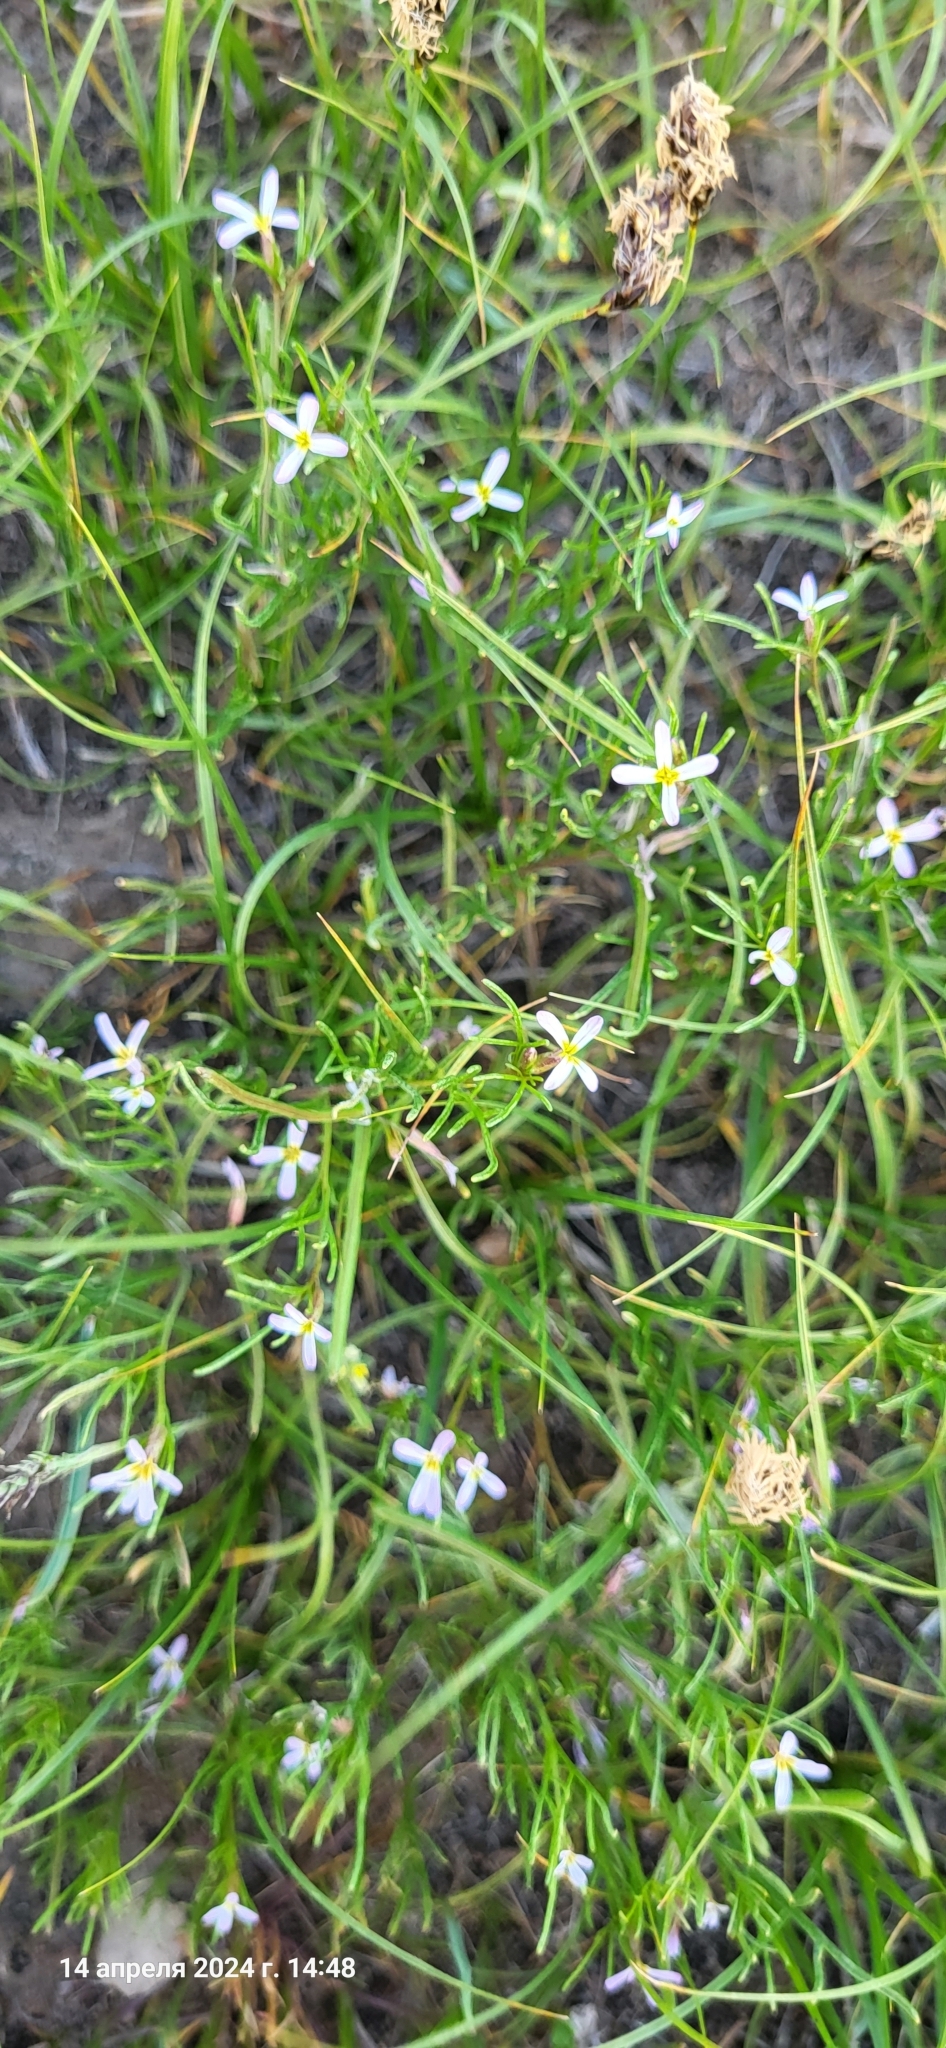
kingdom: Plantae
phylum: Tracheophyta
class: Magnoliopsida
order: Brassicales
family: Brassicaceae
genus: Leptaleum
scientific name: Leptaleum filifolium
